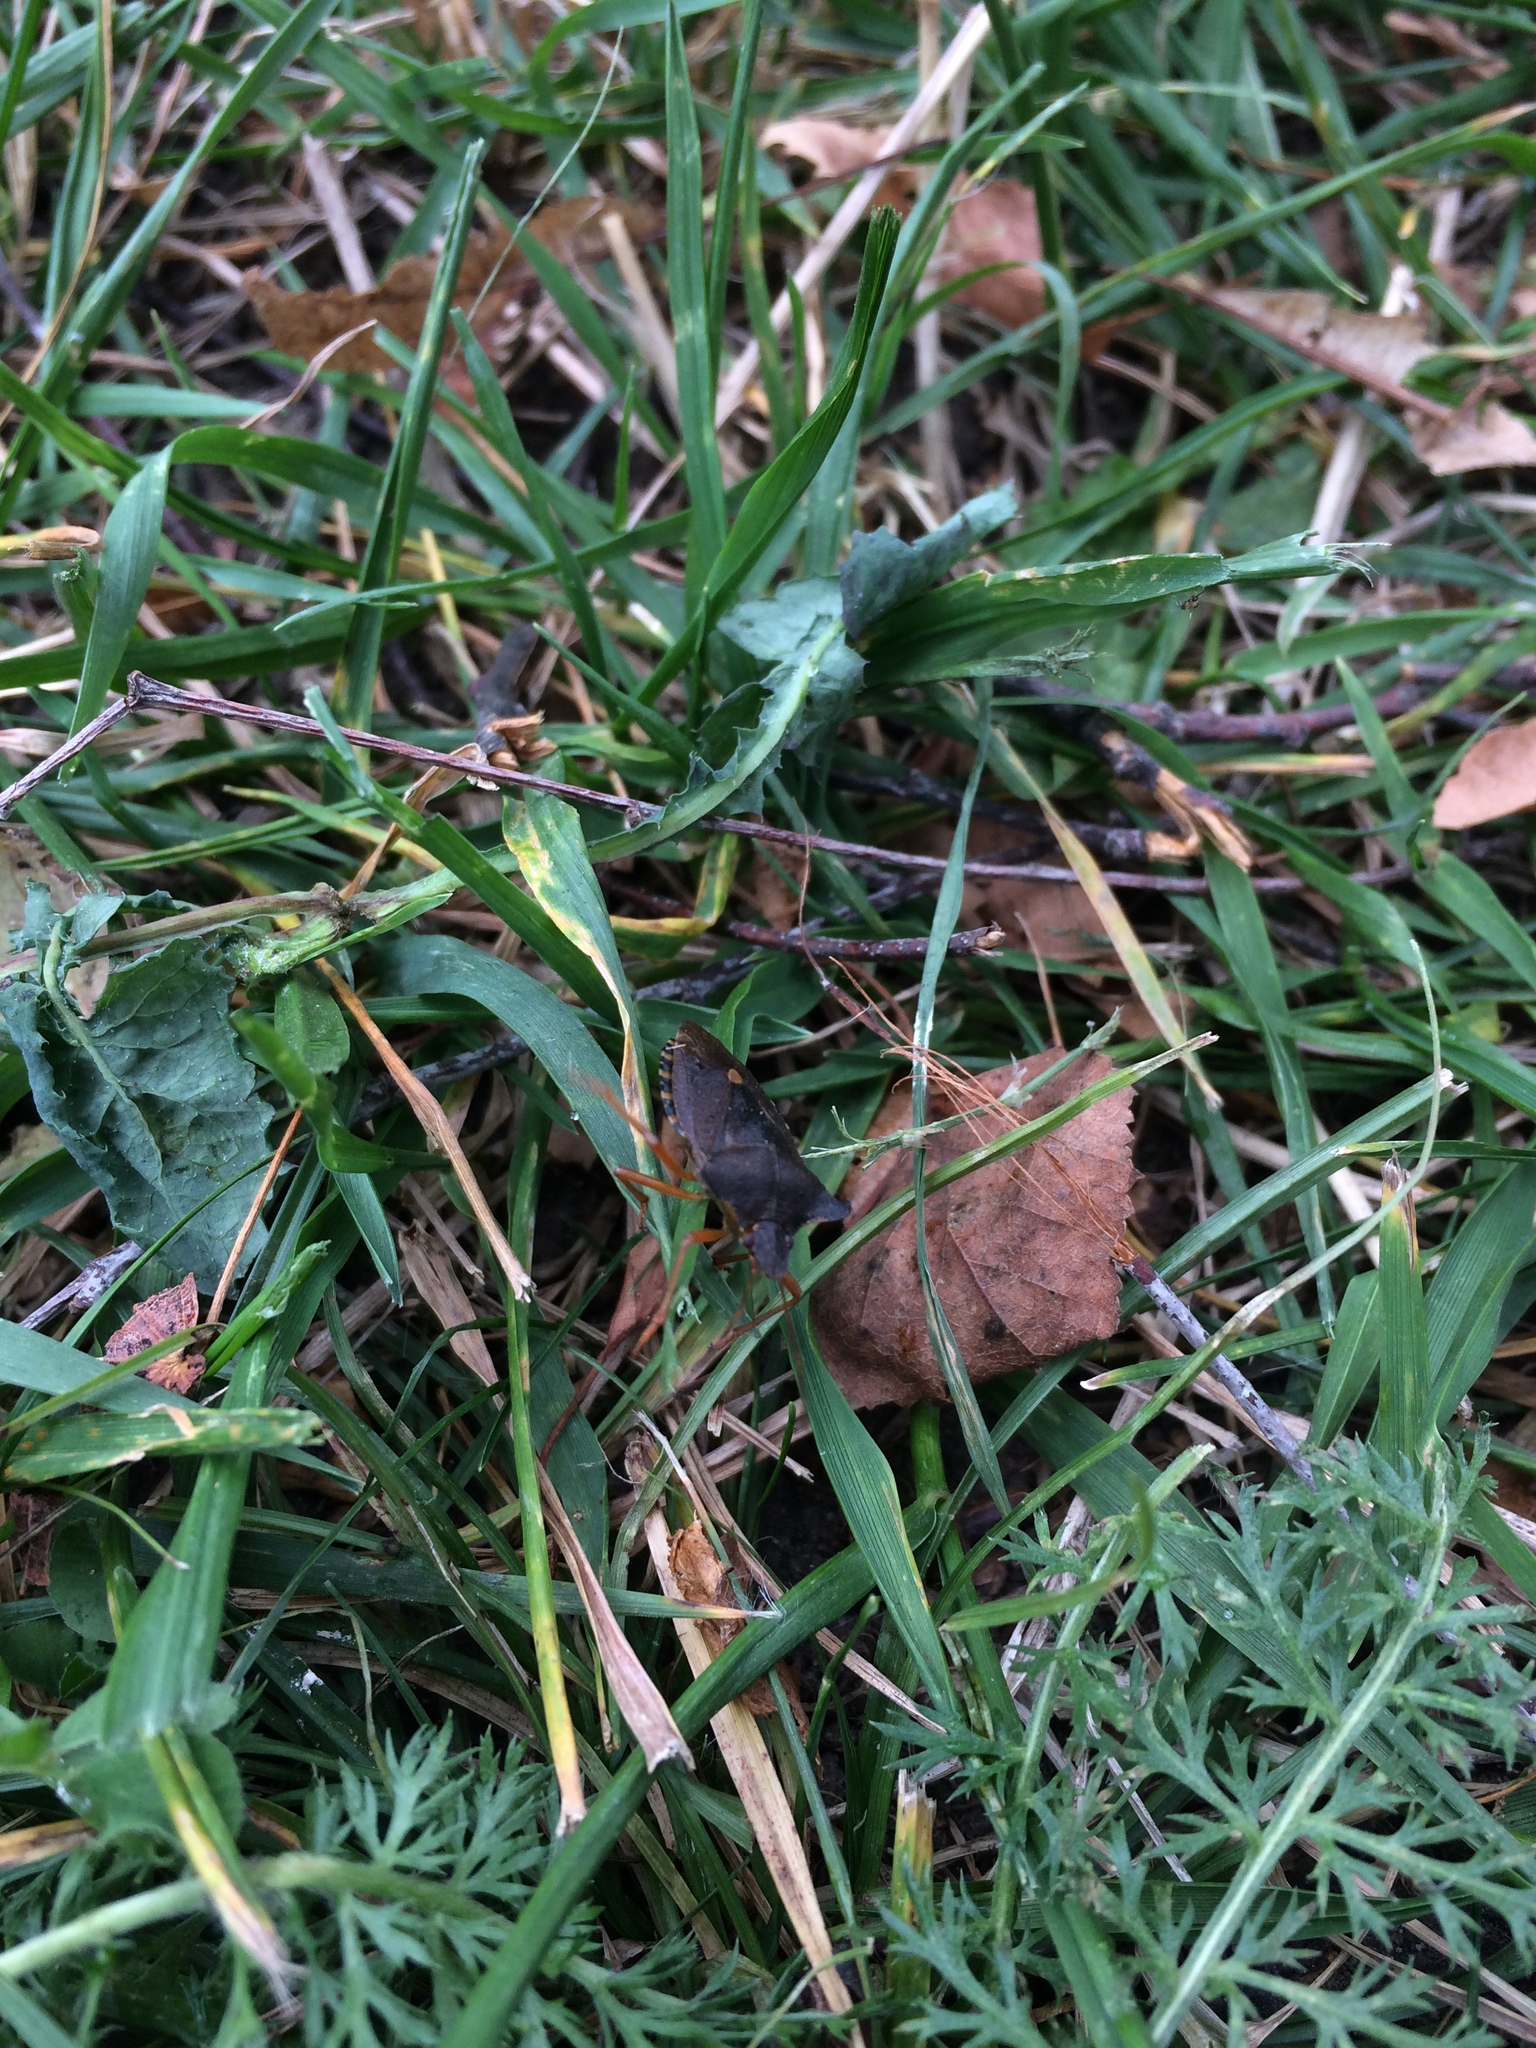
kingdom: Animalia
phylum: Arthropoda
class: Insecta
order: Hemiptera
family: Pentatomidae
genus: Pentatoma
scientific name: Pentatoma rufipes
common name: Forest bug
